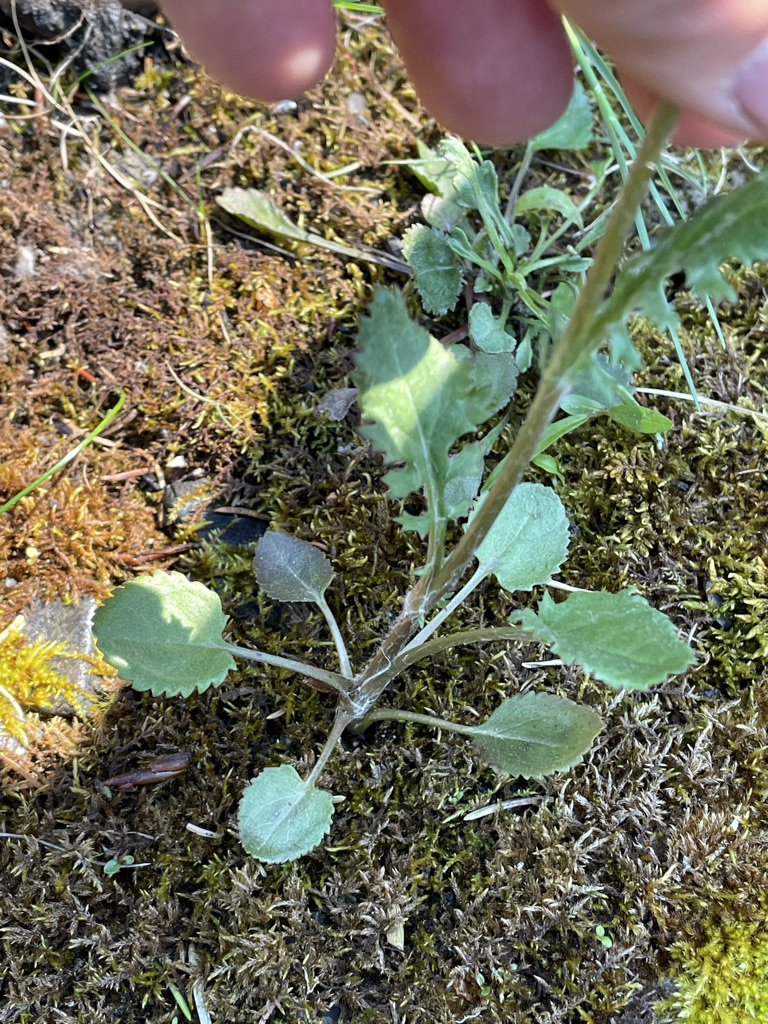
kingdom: Plantae
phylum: Tracheophyta
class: Magnoliopsida
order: Asterales
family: Asteraceae
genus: Packera
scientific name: Packera pauciflora
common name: Alpine groundsel
